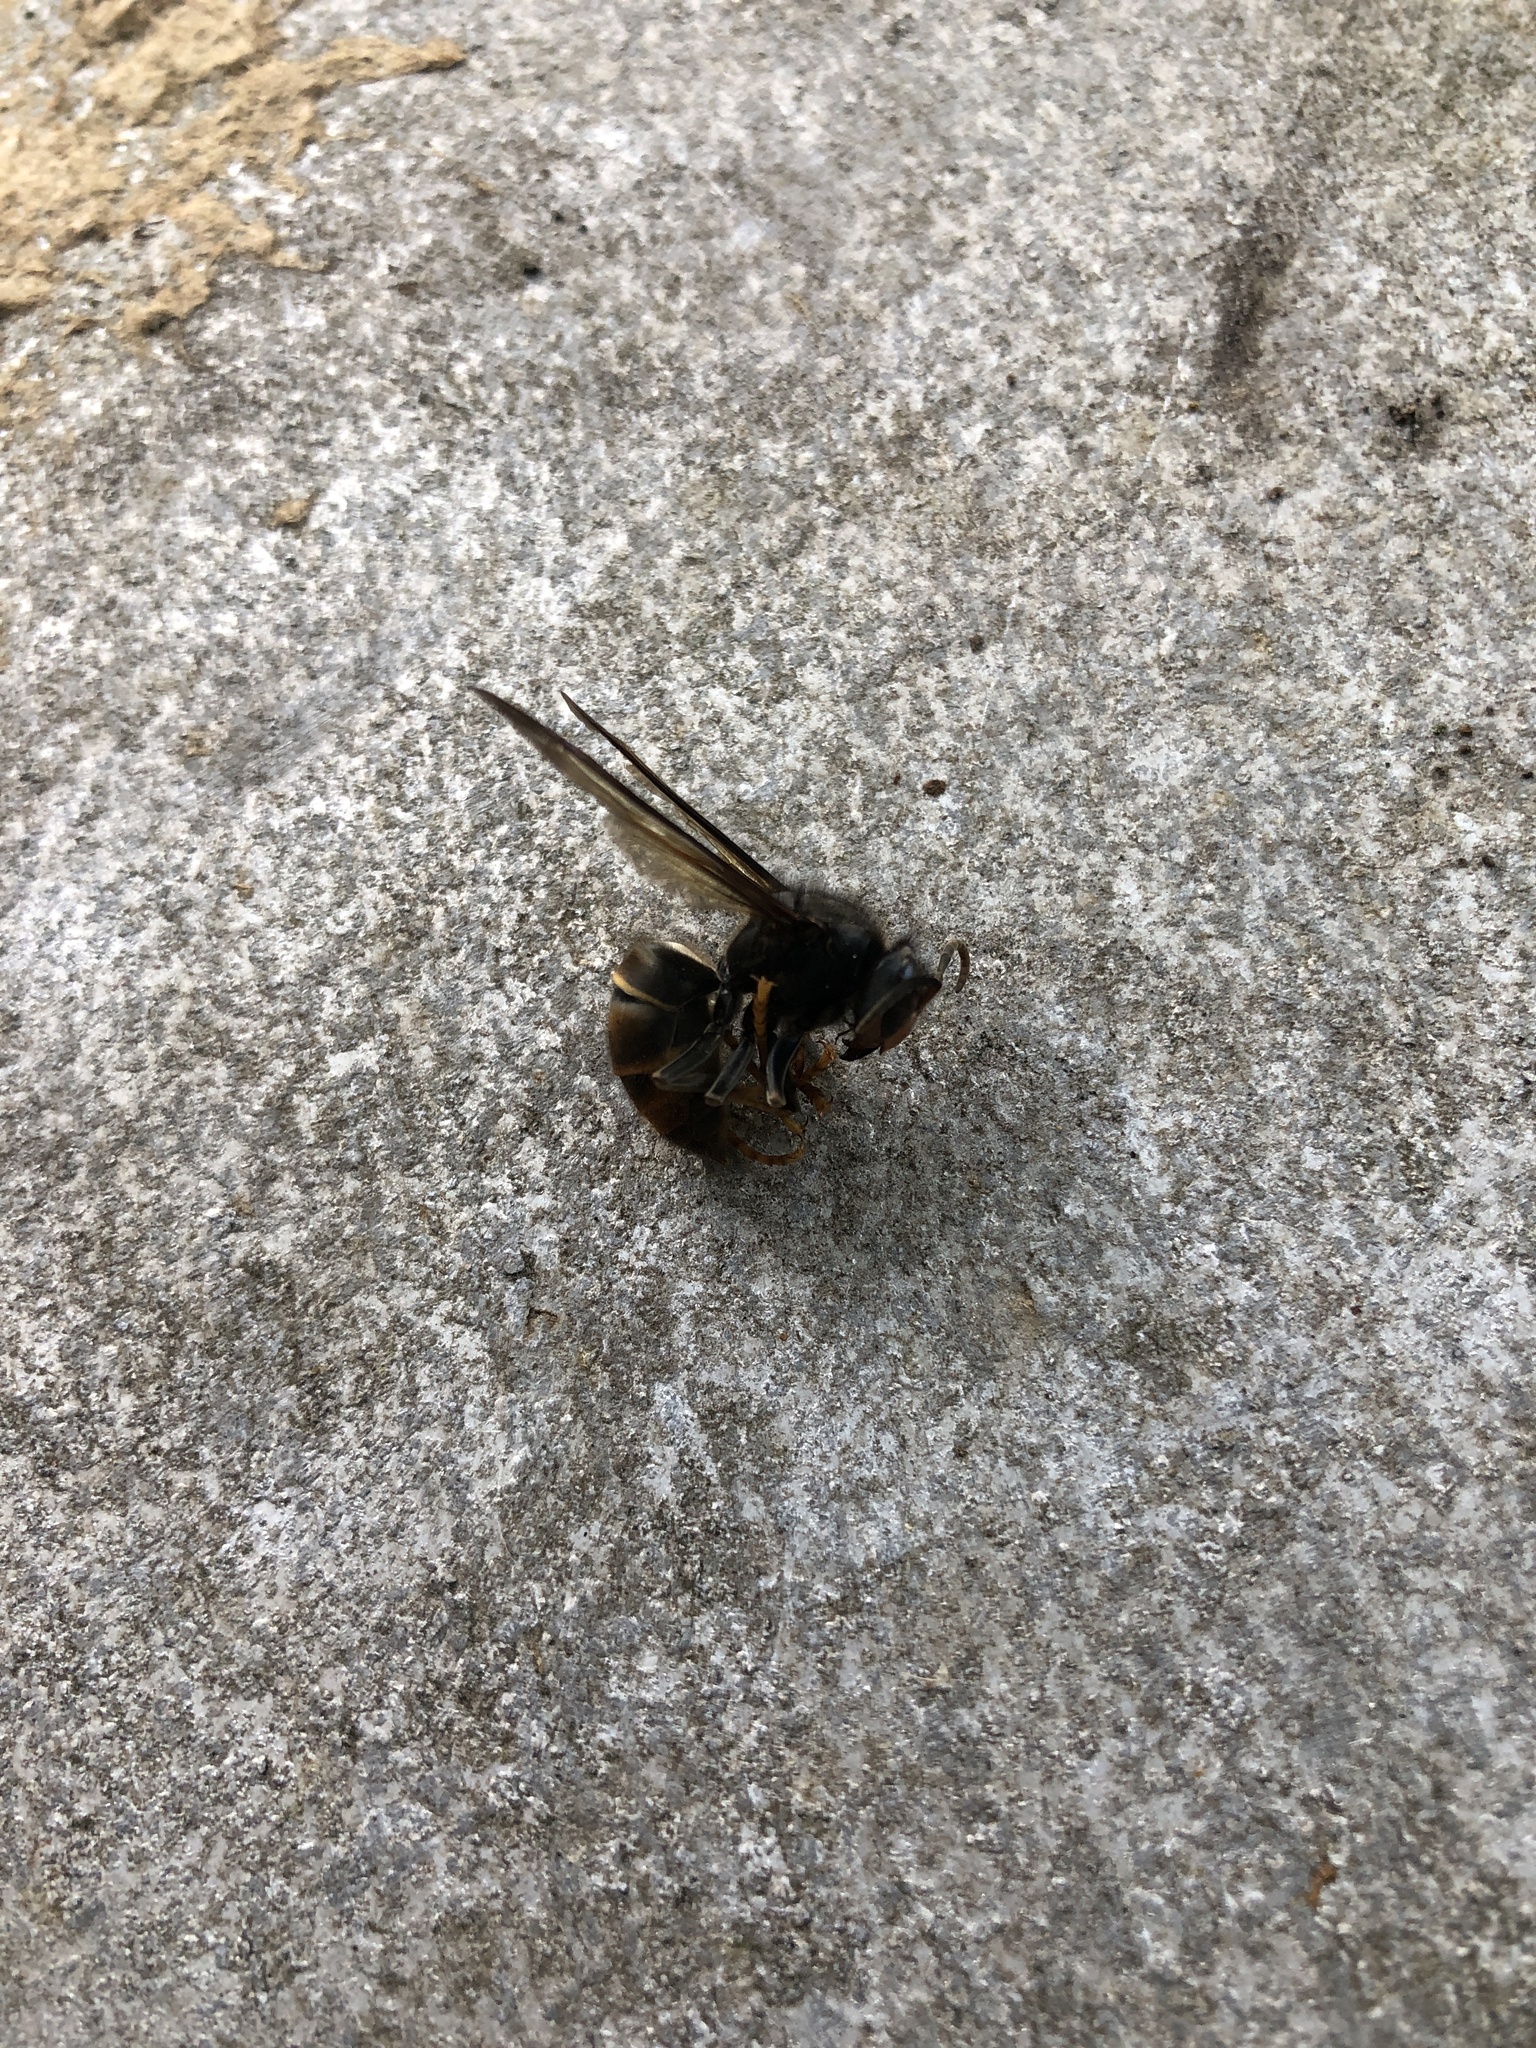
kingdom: Animalia
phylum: Arthropoda
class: Insecta
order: Hymenoptera
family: Vespidae
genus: Vespa
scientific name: Vespa velutina
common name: Asian hornet
